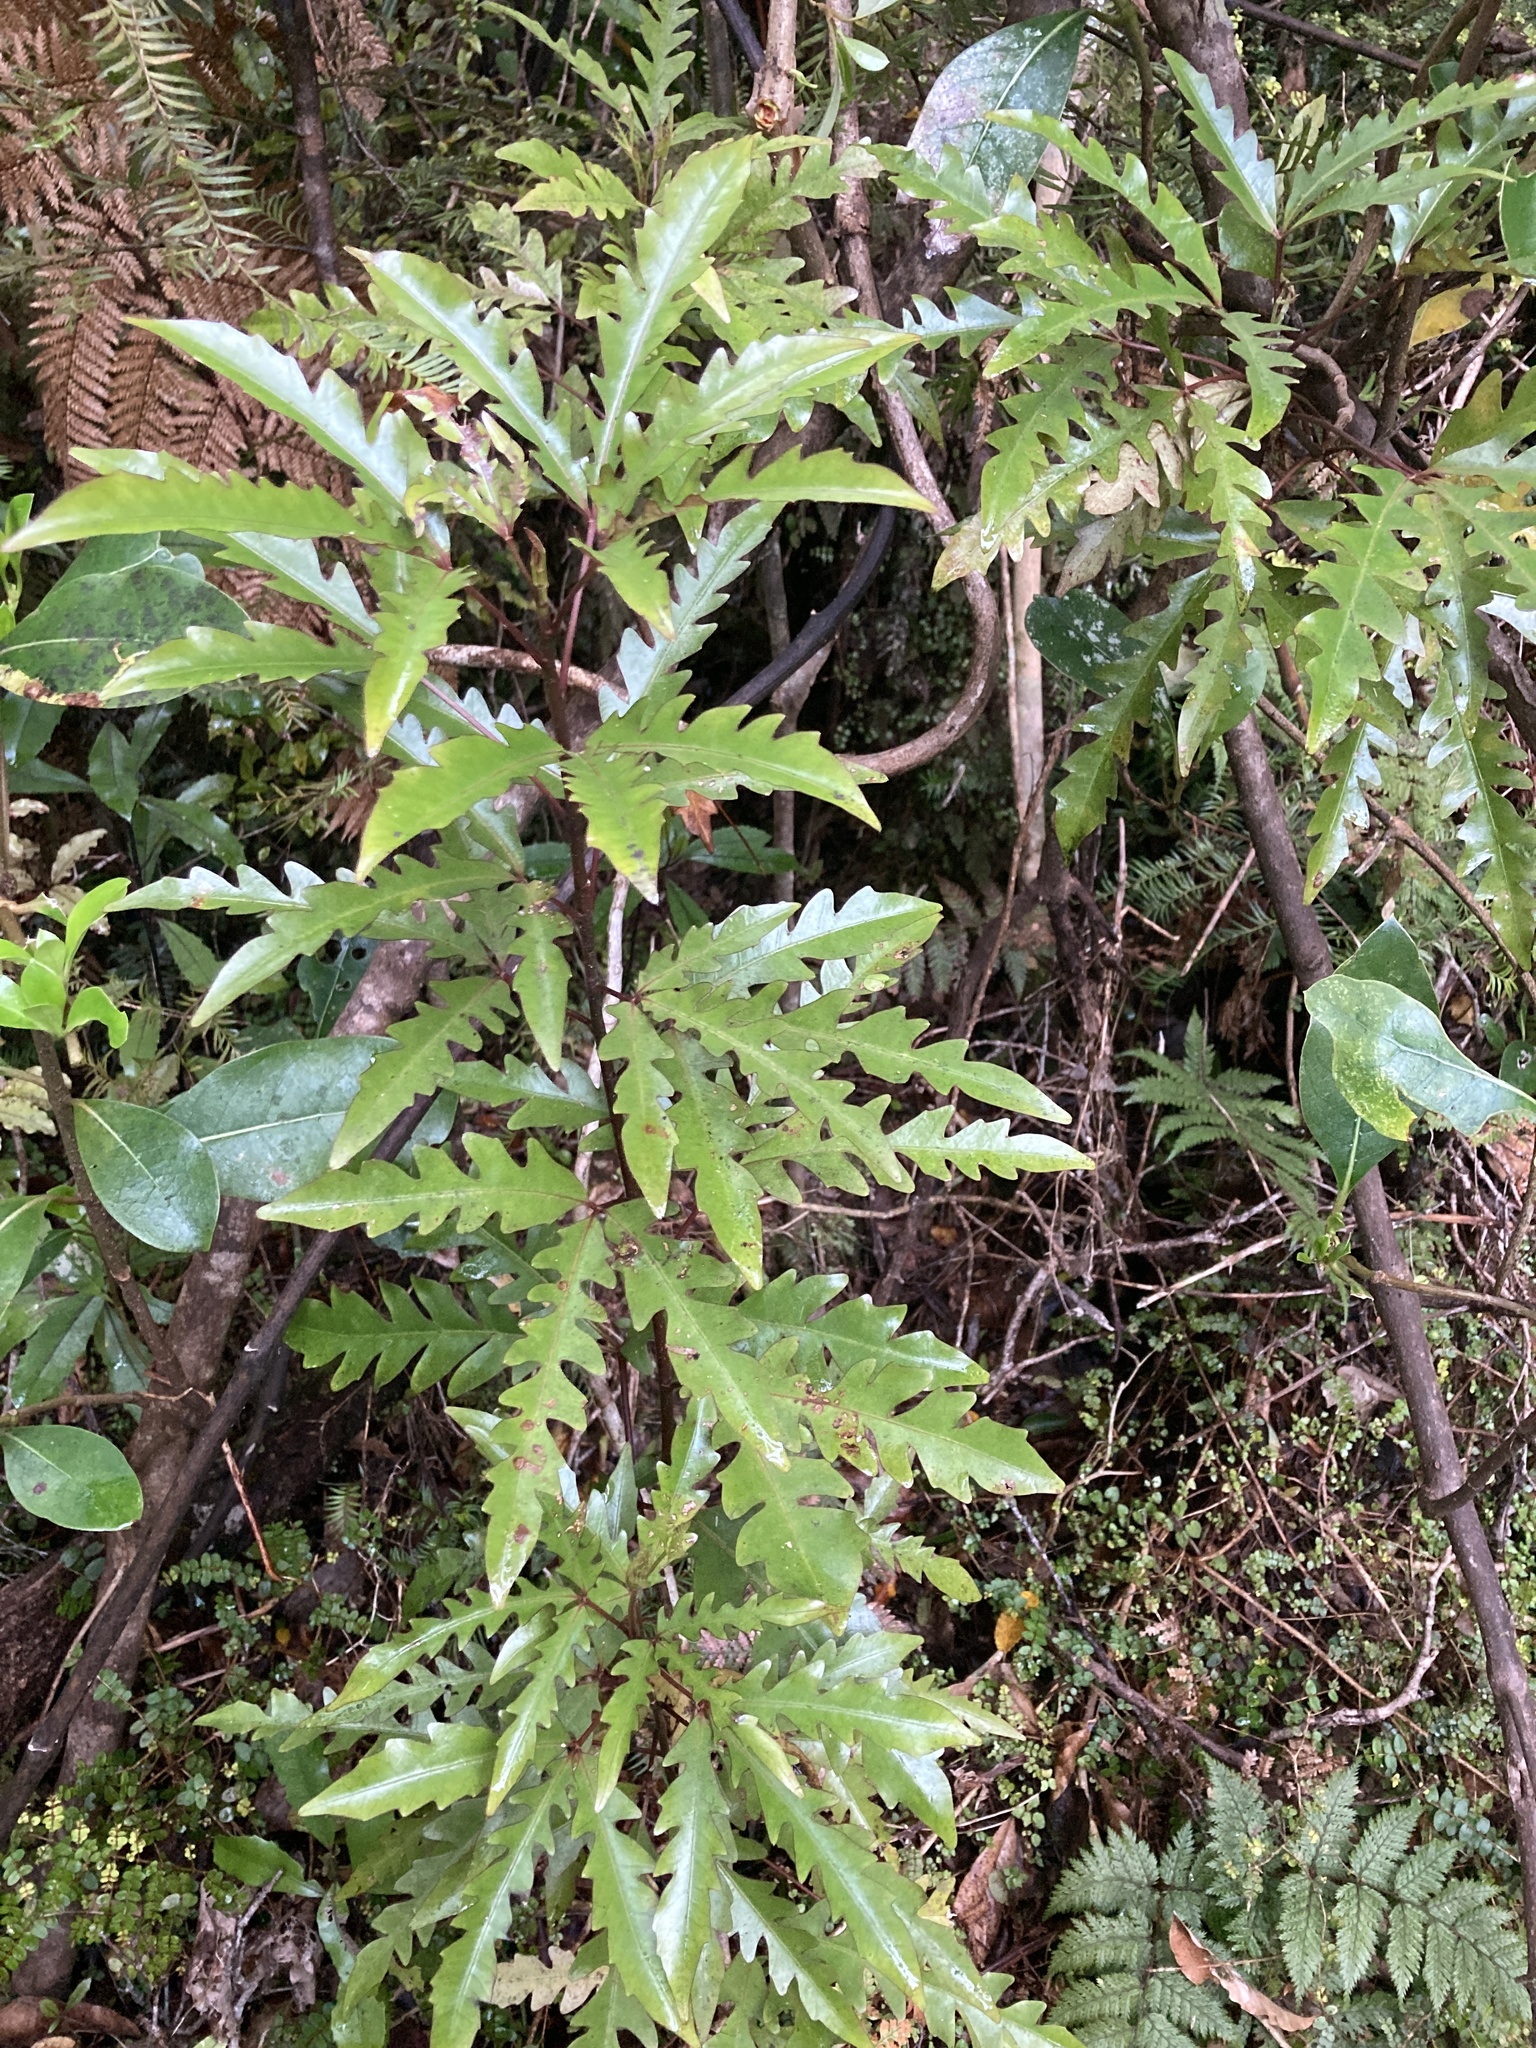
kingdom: Plantae
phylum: Tracheophyta
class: Magnoliopsida
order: Apiales
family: Araliaceae
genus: Raukaua
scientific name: Raukaua edgerleyi
